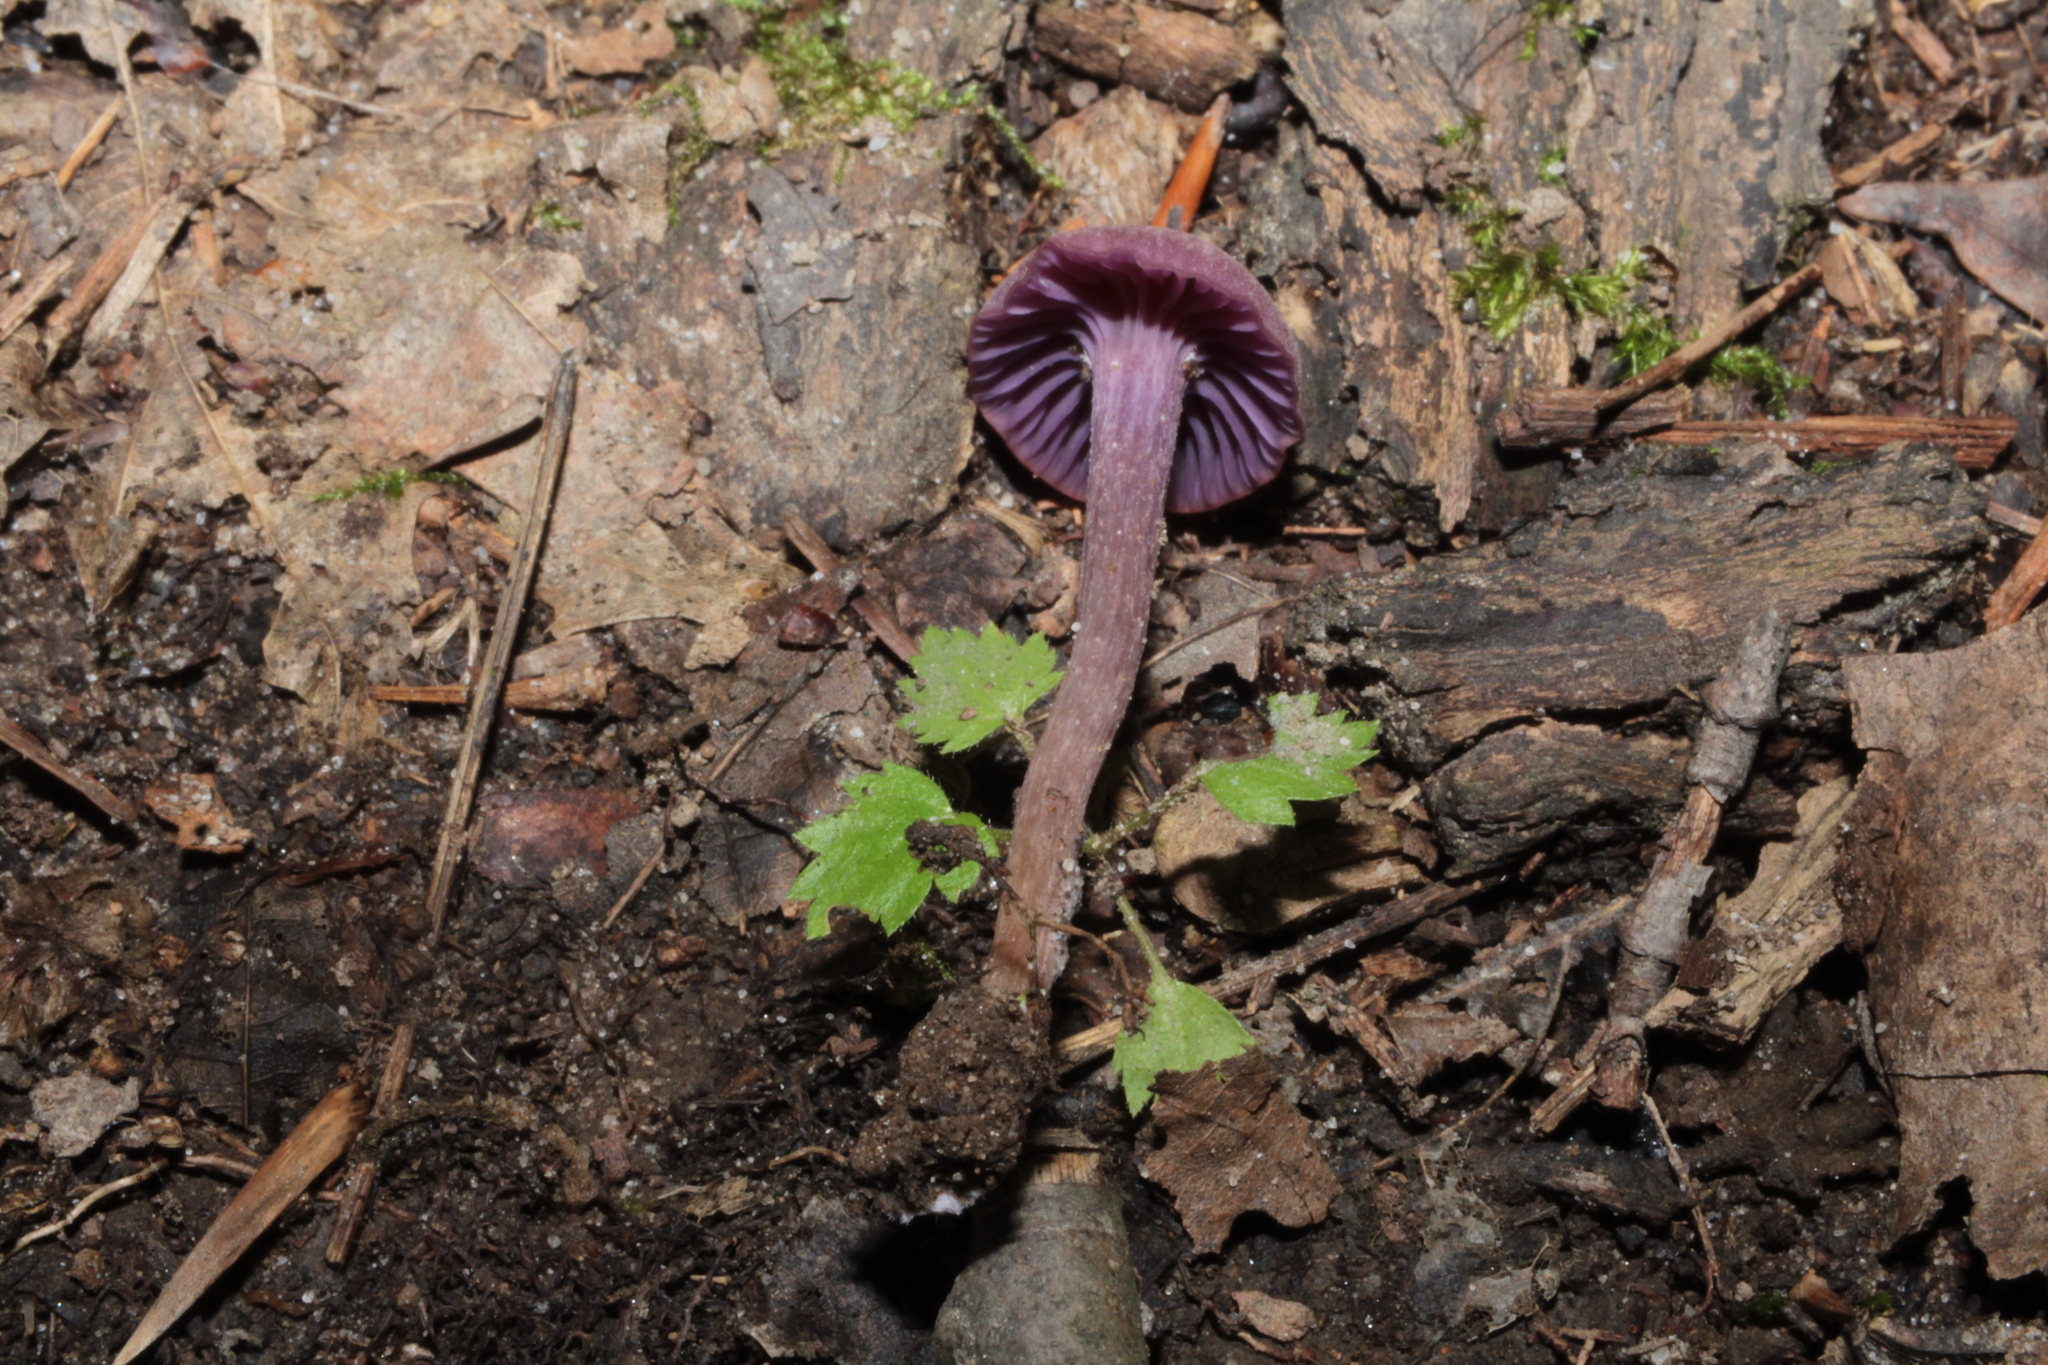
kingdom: Fungi
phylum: Basidiomycota
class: Agaricomycetes
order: Agaricales
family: Hydnangiaceae
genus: Laccaria
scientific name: Laccaria amethystina
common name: Amethyst deceiver
